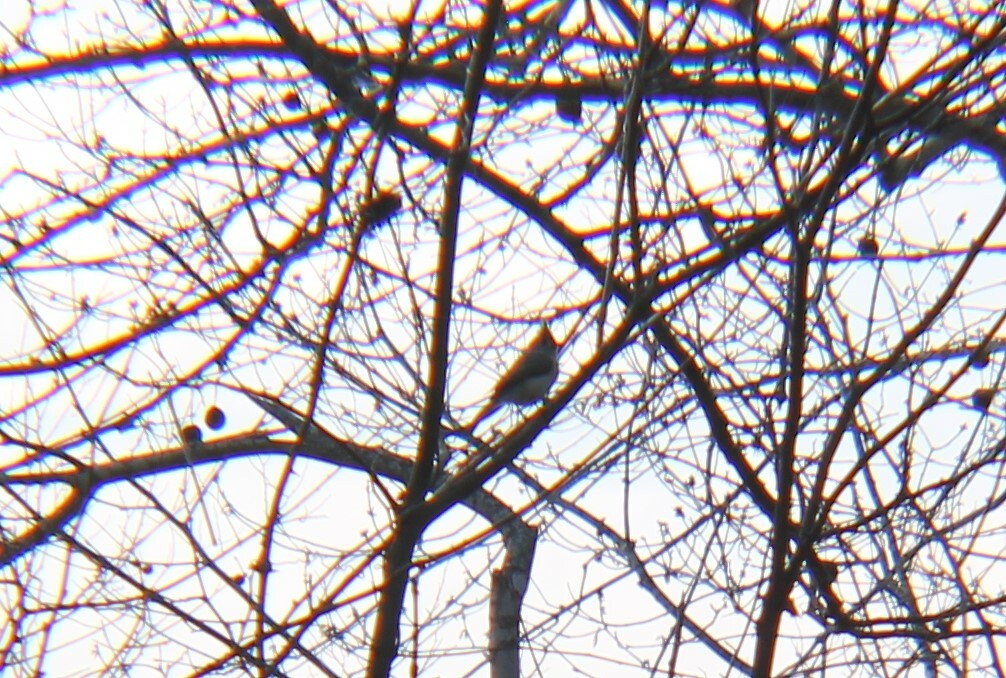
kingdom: Animalia
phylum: Chordata
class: Aves
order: Passeriformes
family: Paridae
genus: Baeolophus
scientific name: Baeolophus bicolor
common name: Tufted titmouse
